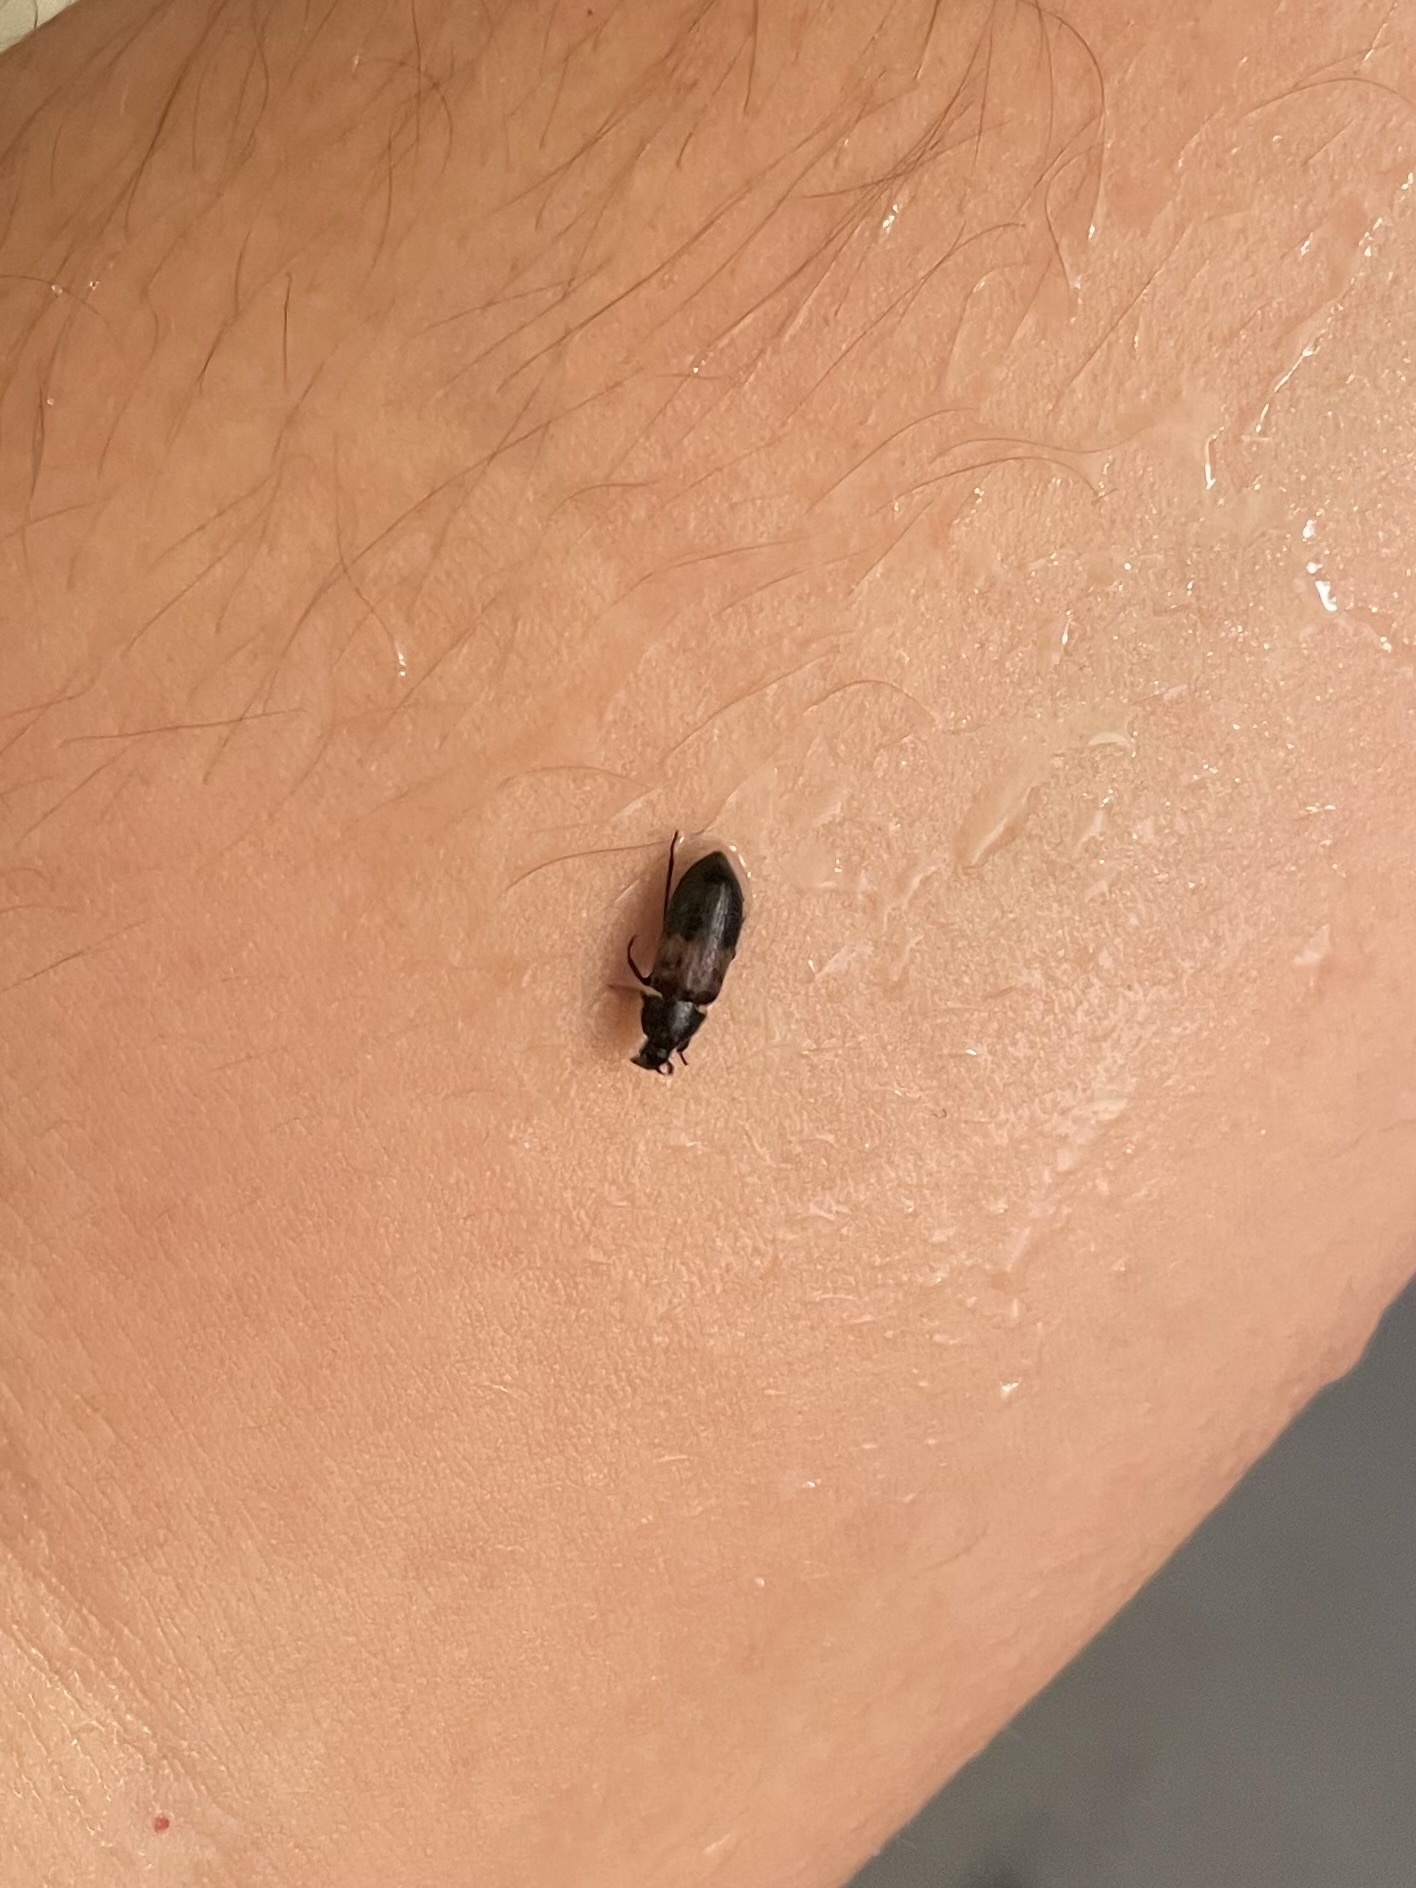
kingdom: Animalia
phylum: Arthropoda
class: Insecta
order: Coleoptera
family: Dermestidae
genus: Dermestes
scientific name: Dermestes lardarius
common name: Larder beetle
